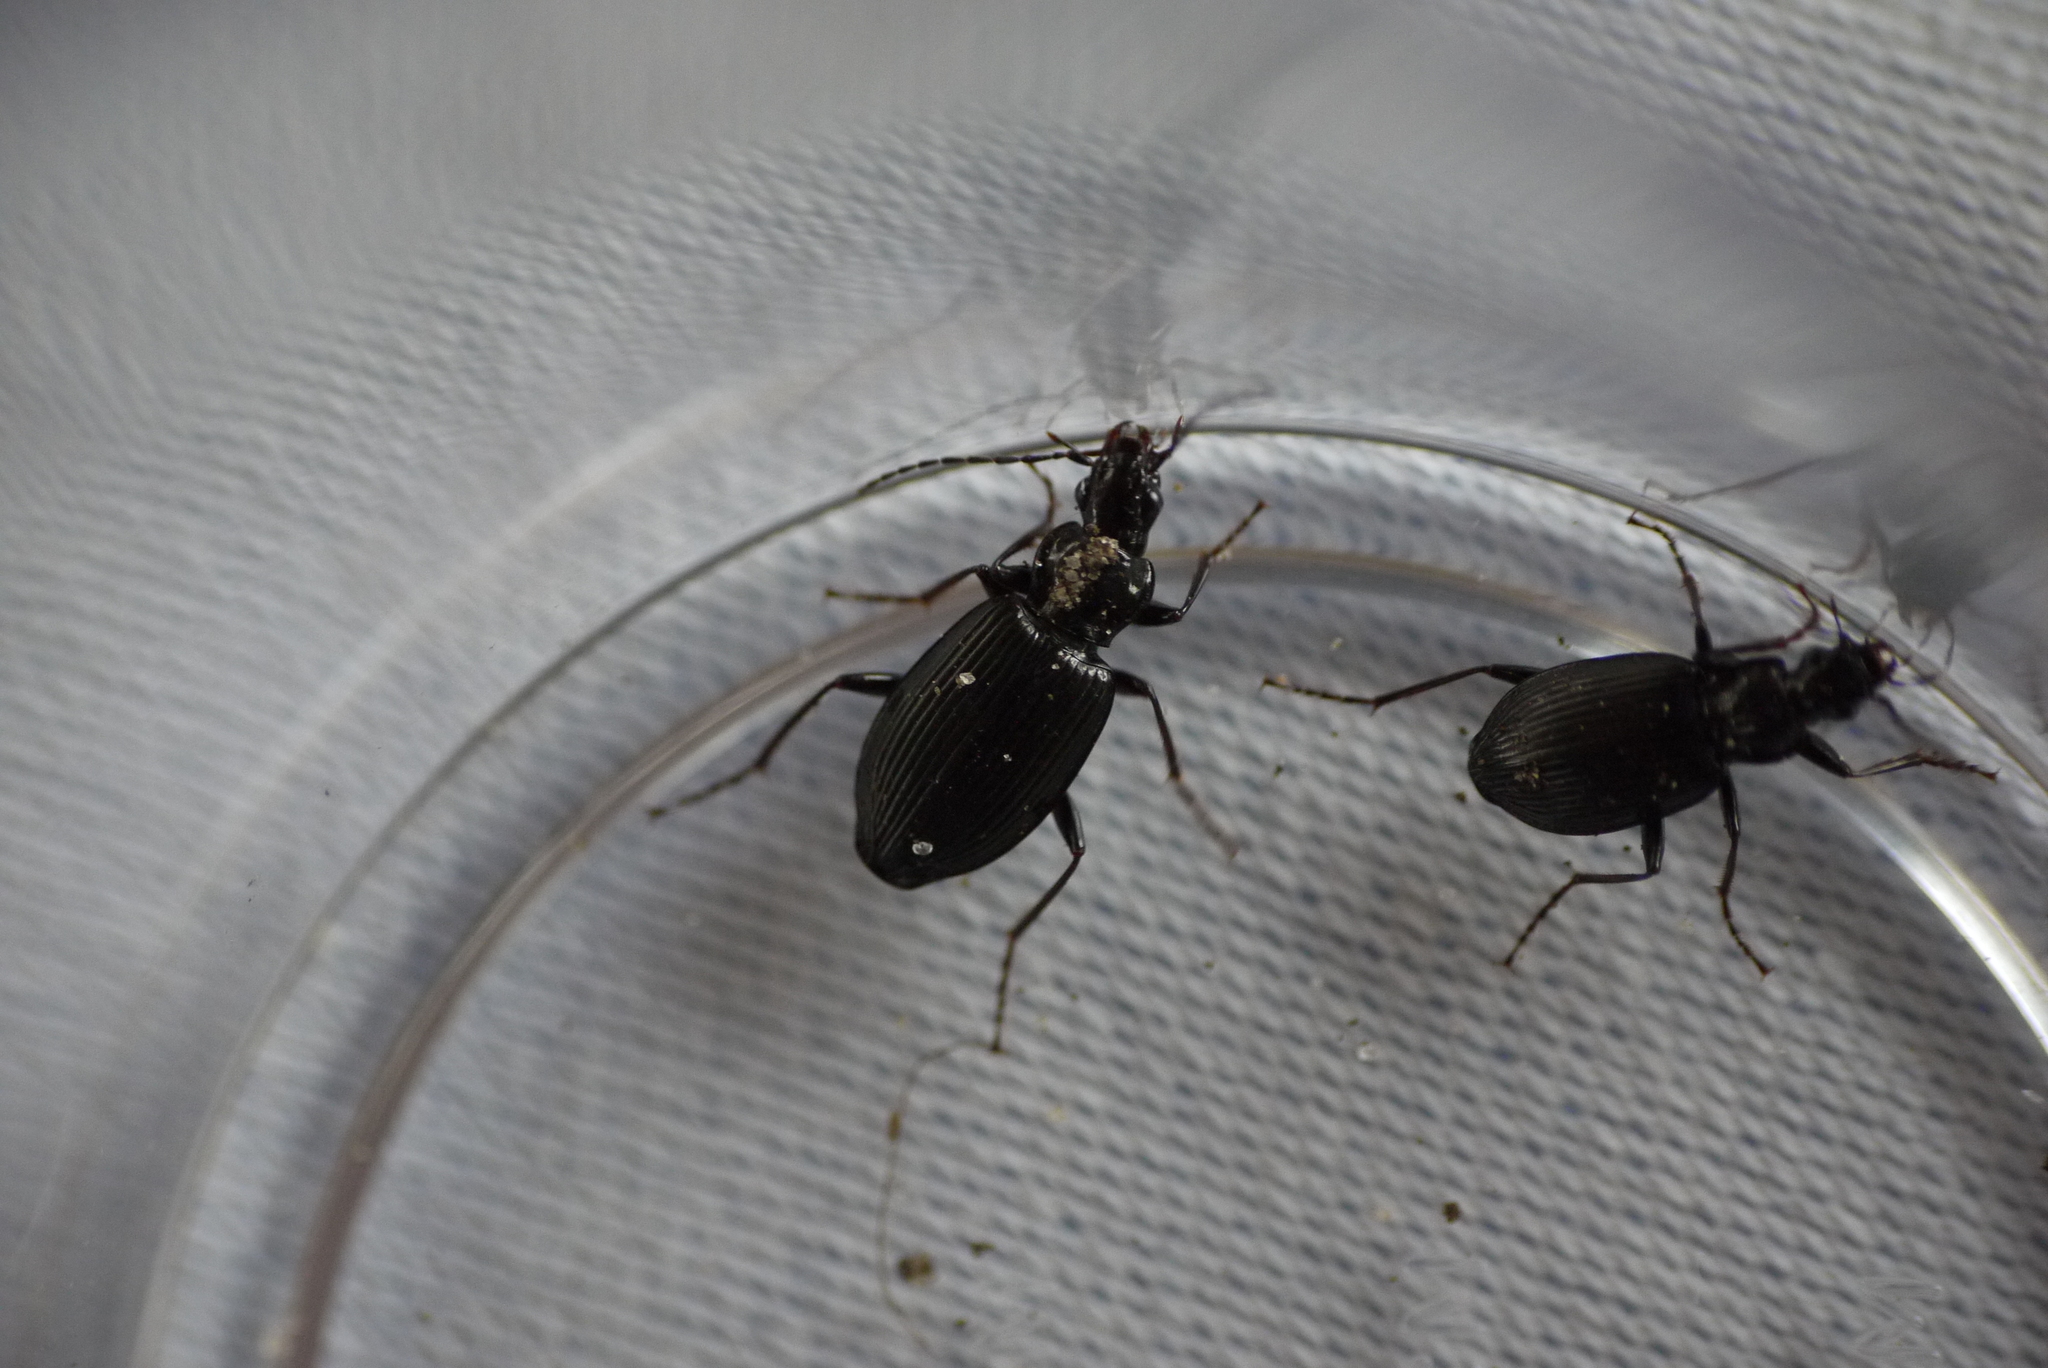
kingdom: Animalia
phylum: Arthropoda
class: Insecta
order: Coleoptera
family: Carabidae
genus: Platynus
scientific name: Platynus assimilis
